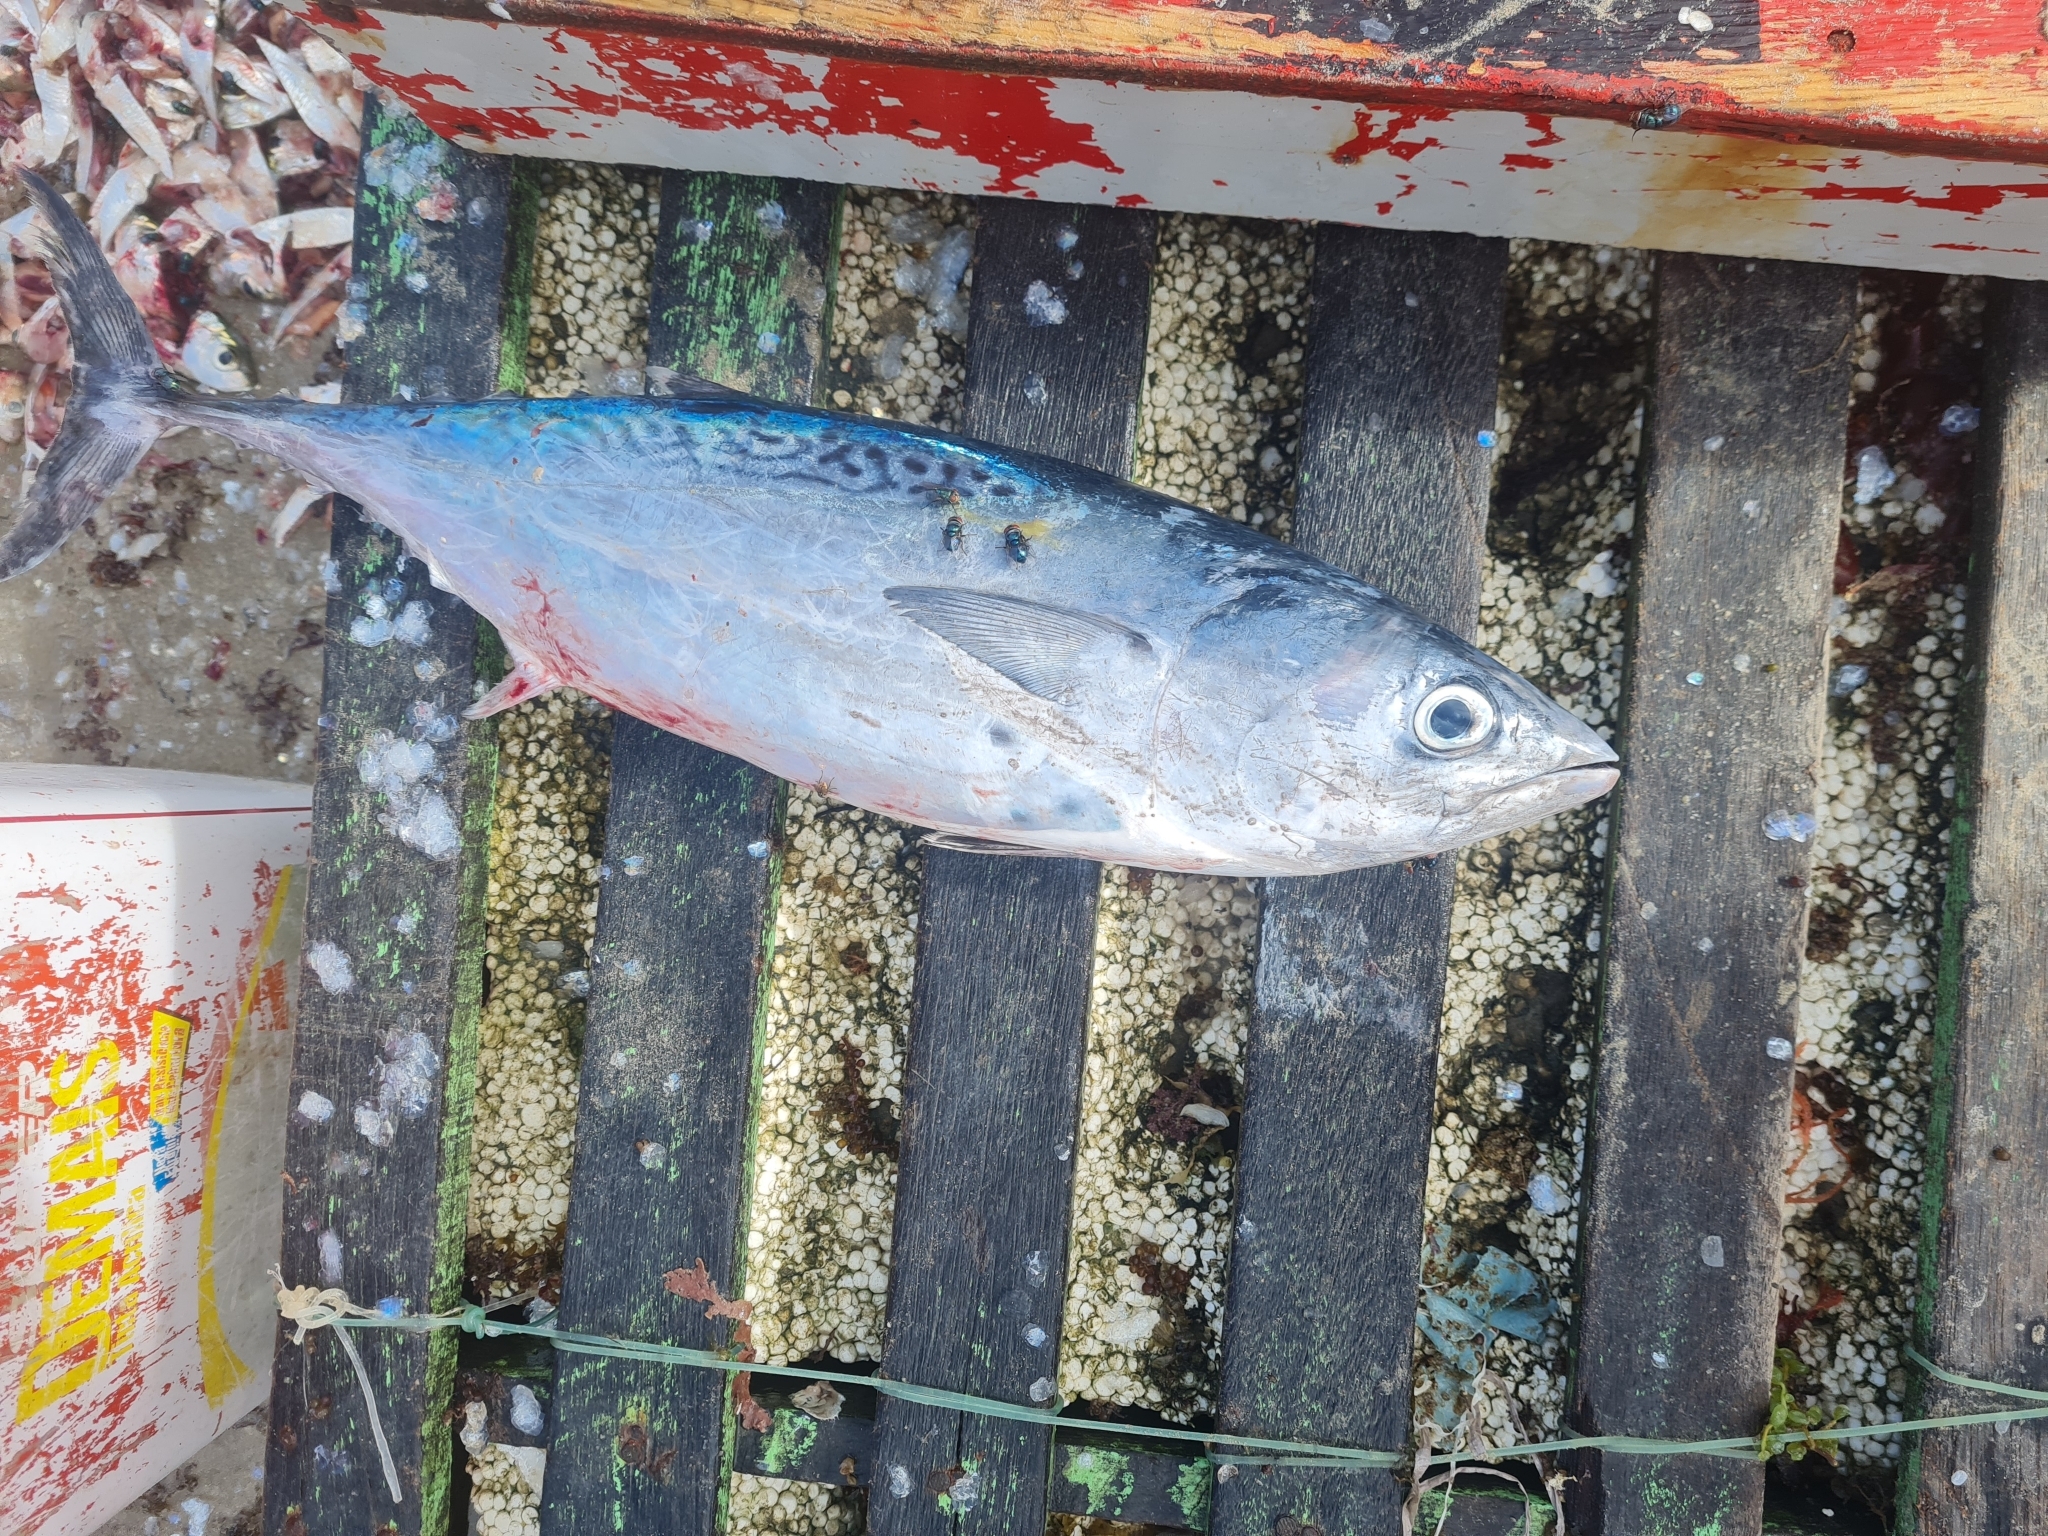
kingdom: Animalia
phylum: Chordata
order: Perciformes
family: Scombridae
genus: Euthynnus
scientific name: Euthynnus alletteratus
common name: Little tunny
